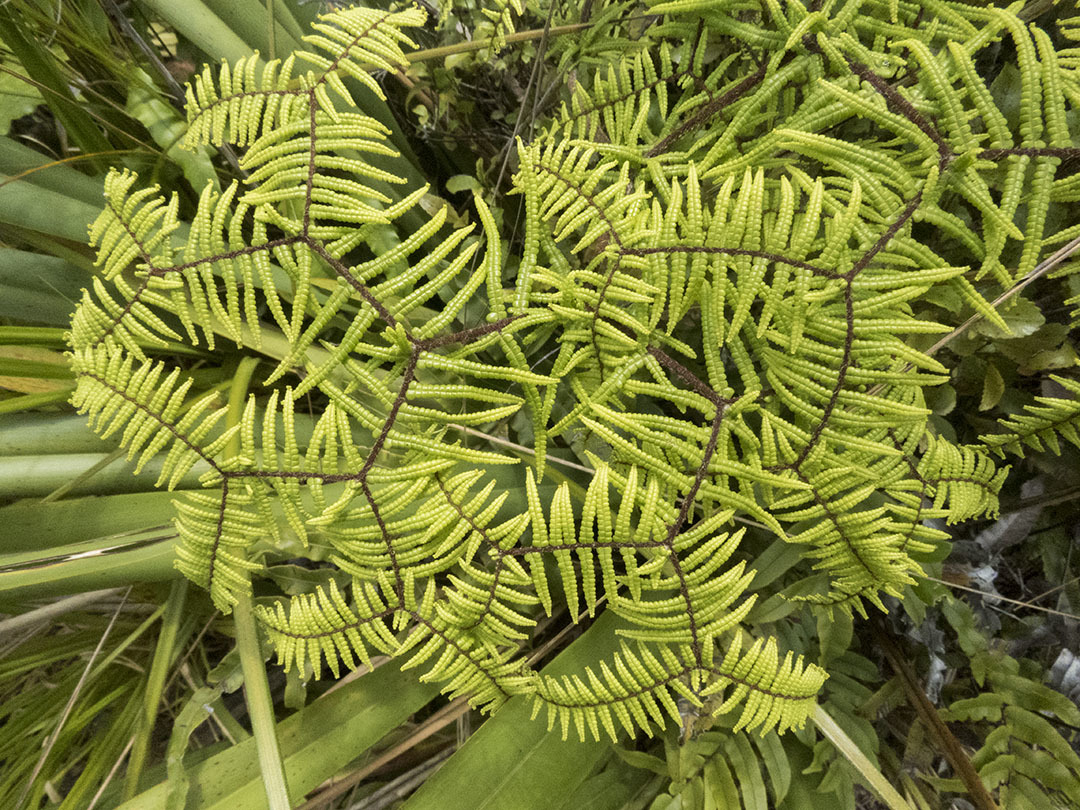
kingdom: Plantae
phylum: Tracheophyta
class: Polypodiopsida
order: Gleicheniales
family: Gleicheniaceae
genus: Gleichenia
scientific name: Gleichenia microphylla
